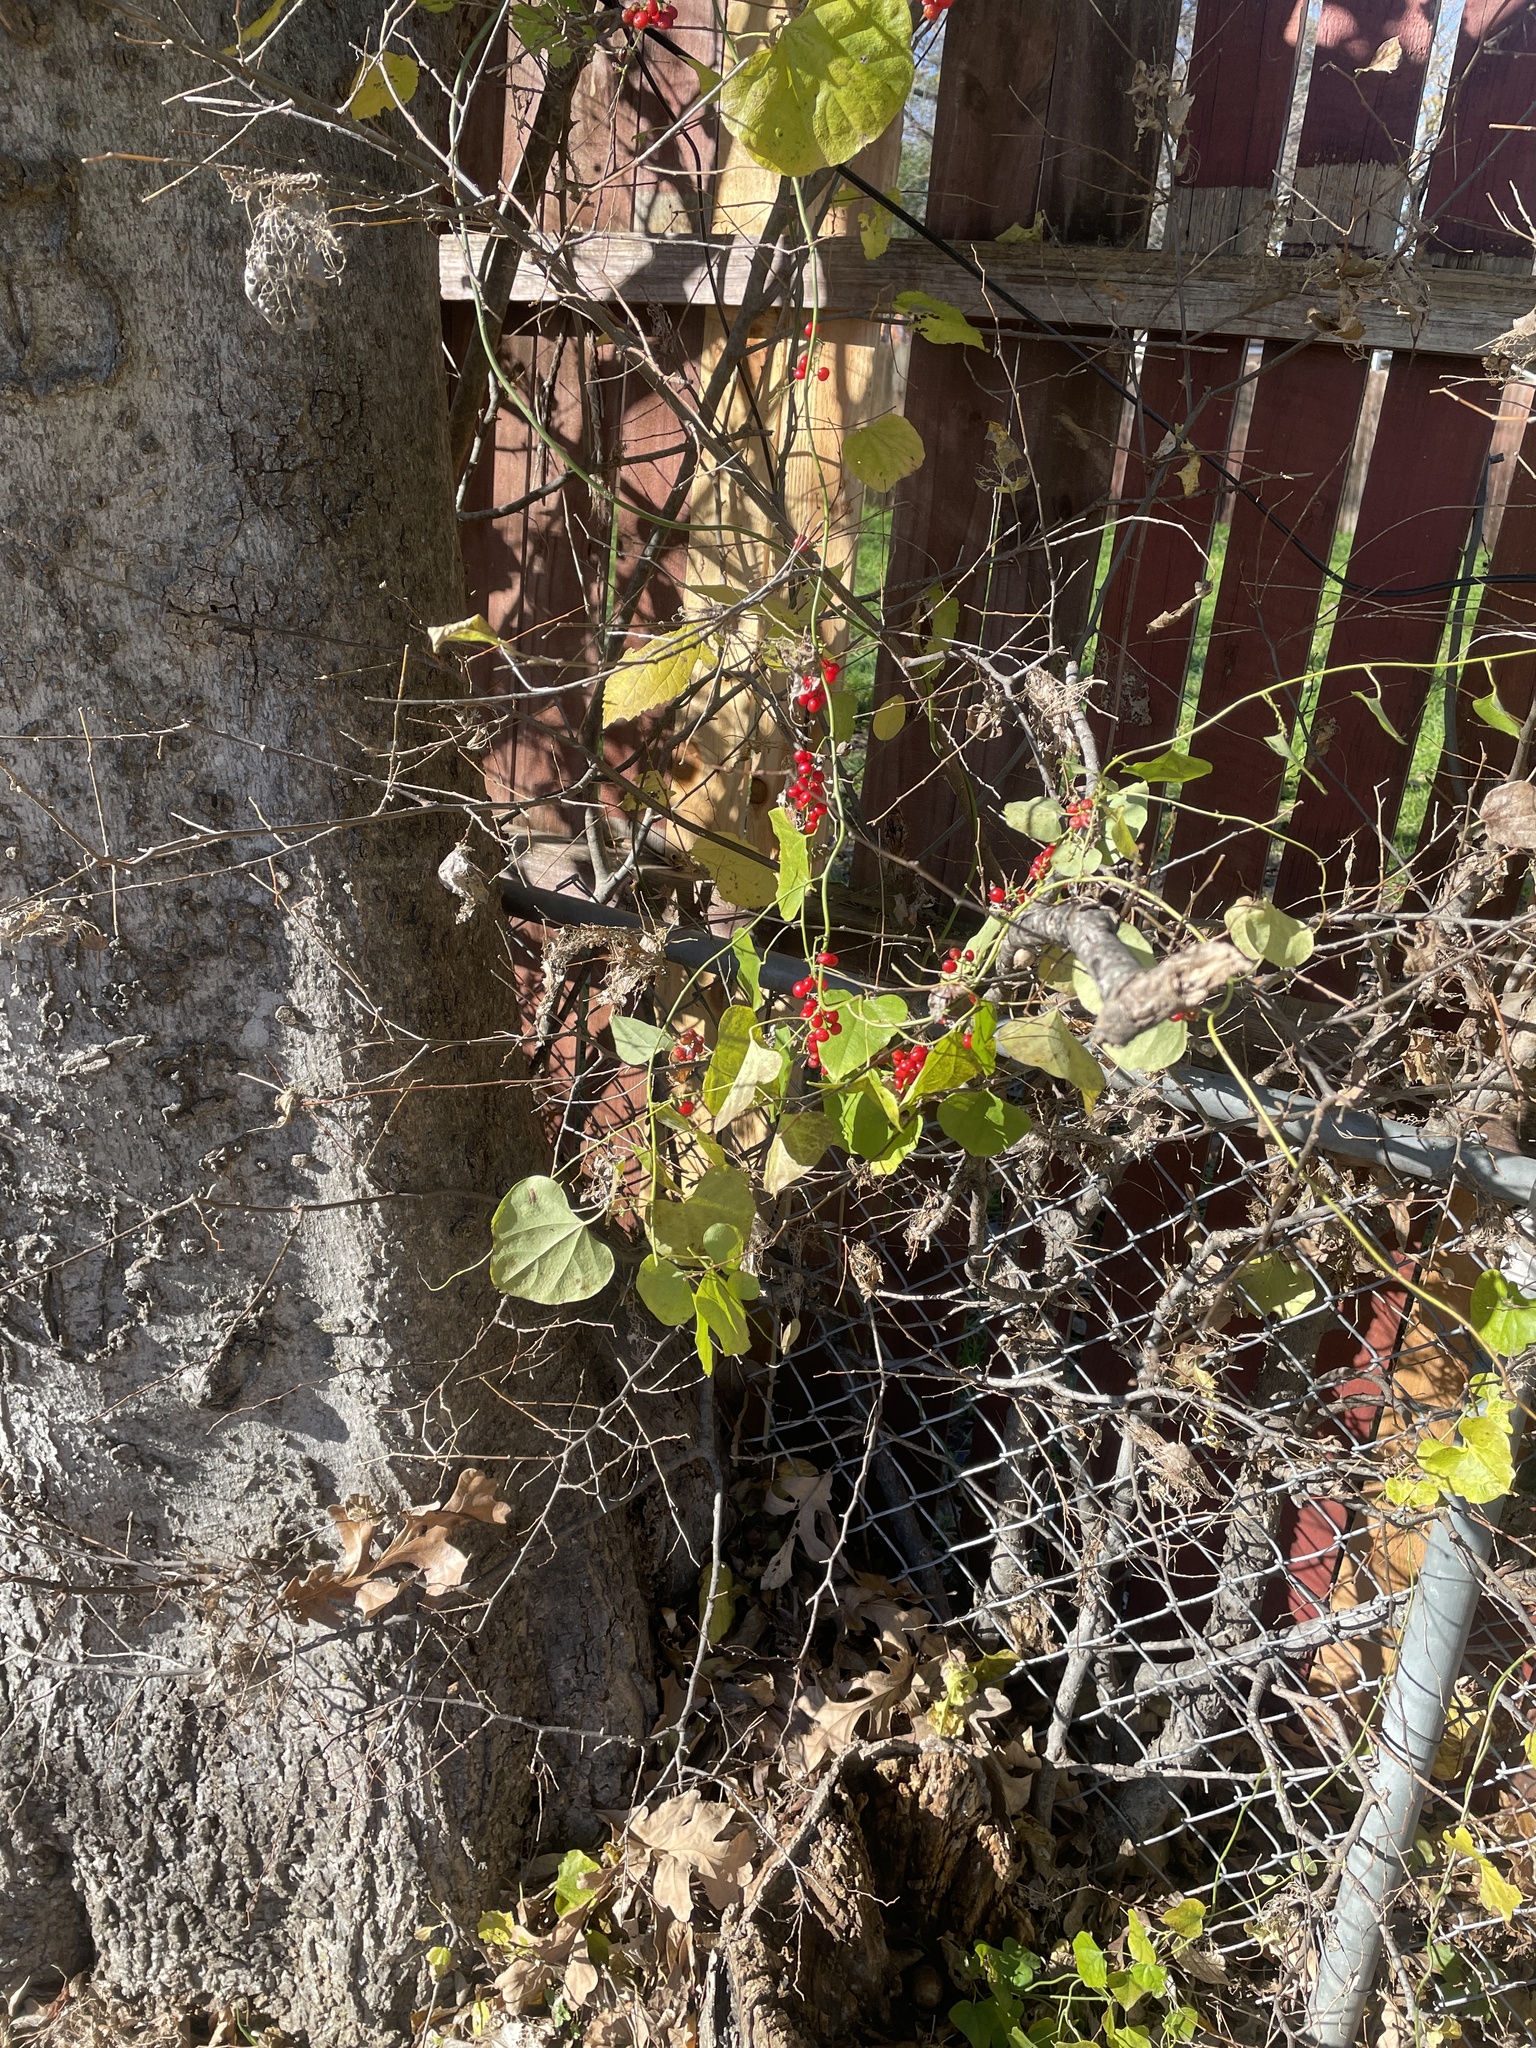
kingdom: Plantae
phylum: Tracheophyta
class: Magnoliopsida
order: Ranunculales
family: Menispermaceae
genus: Cocculus
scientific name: Cocculus carolinus
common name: Carolina moonseed
